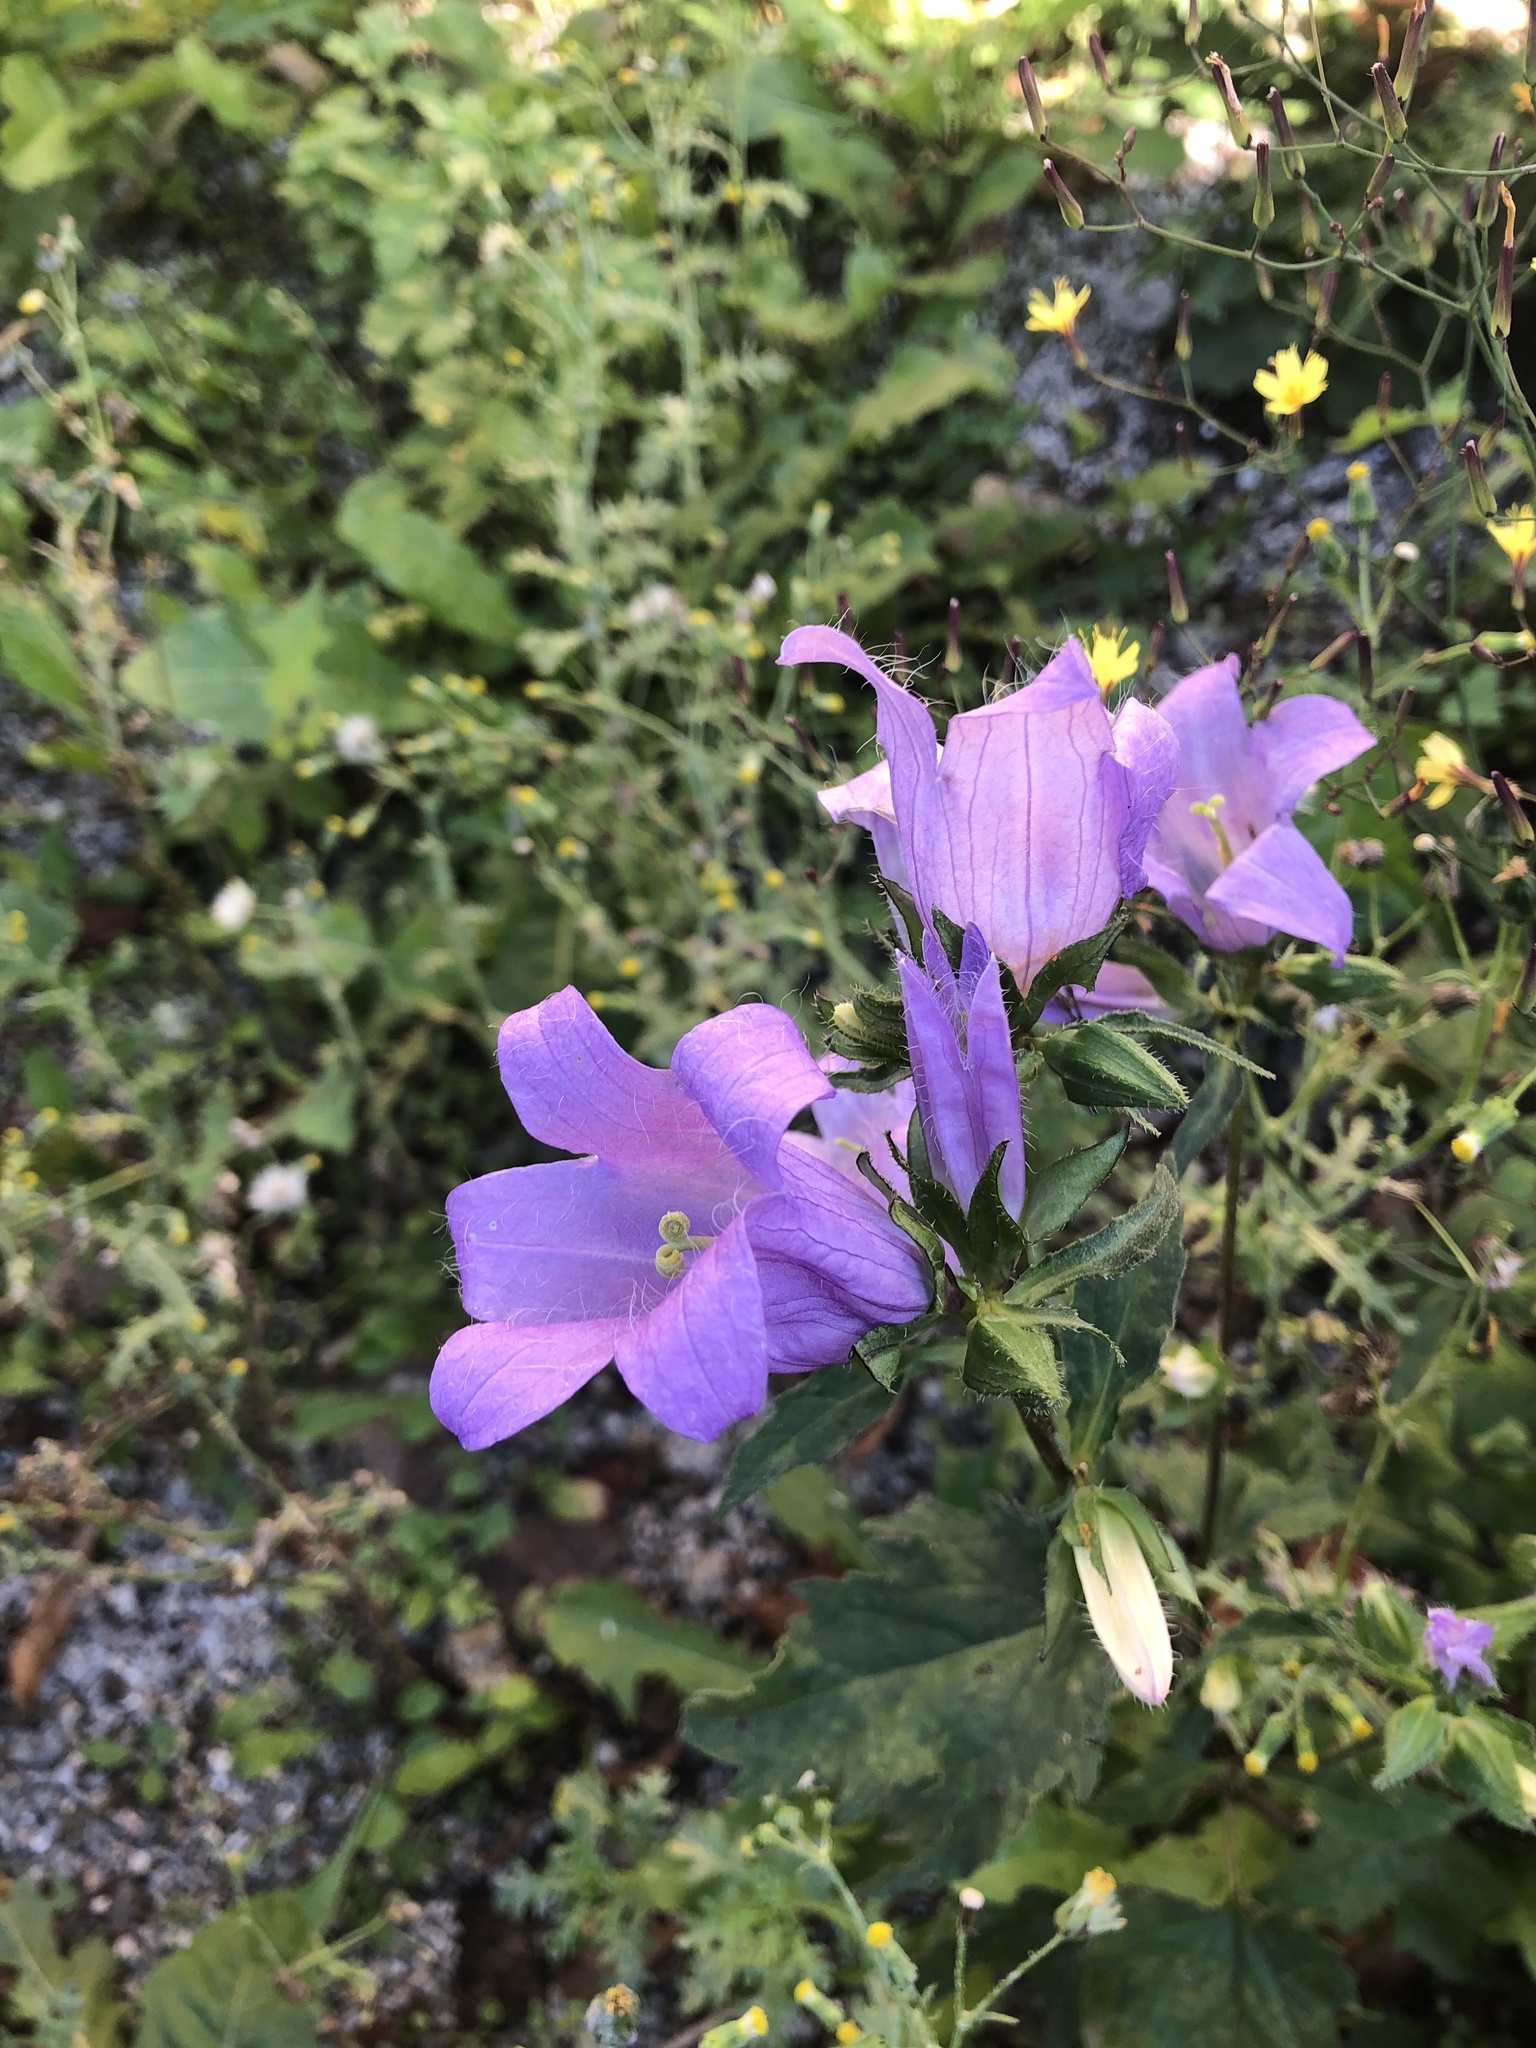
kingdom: Plantae
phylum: Tracheophyta
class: Magnoliopsida
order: Asterales
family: Campanulaceae
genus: Campanula
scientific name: Campanula trachelium
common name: Nettle-leaved bellflower
